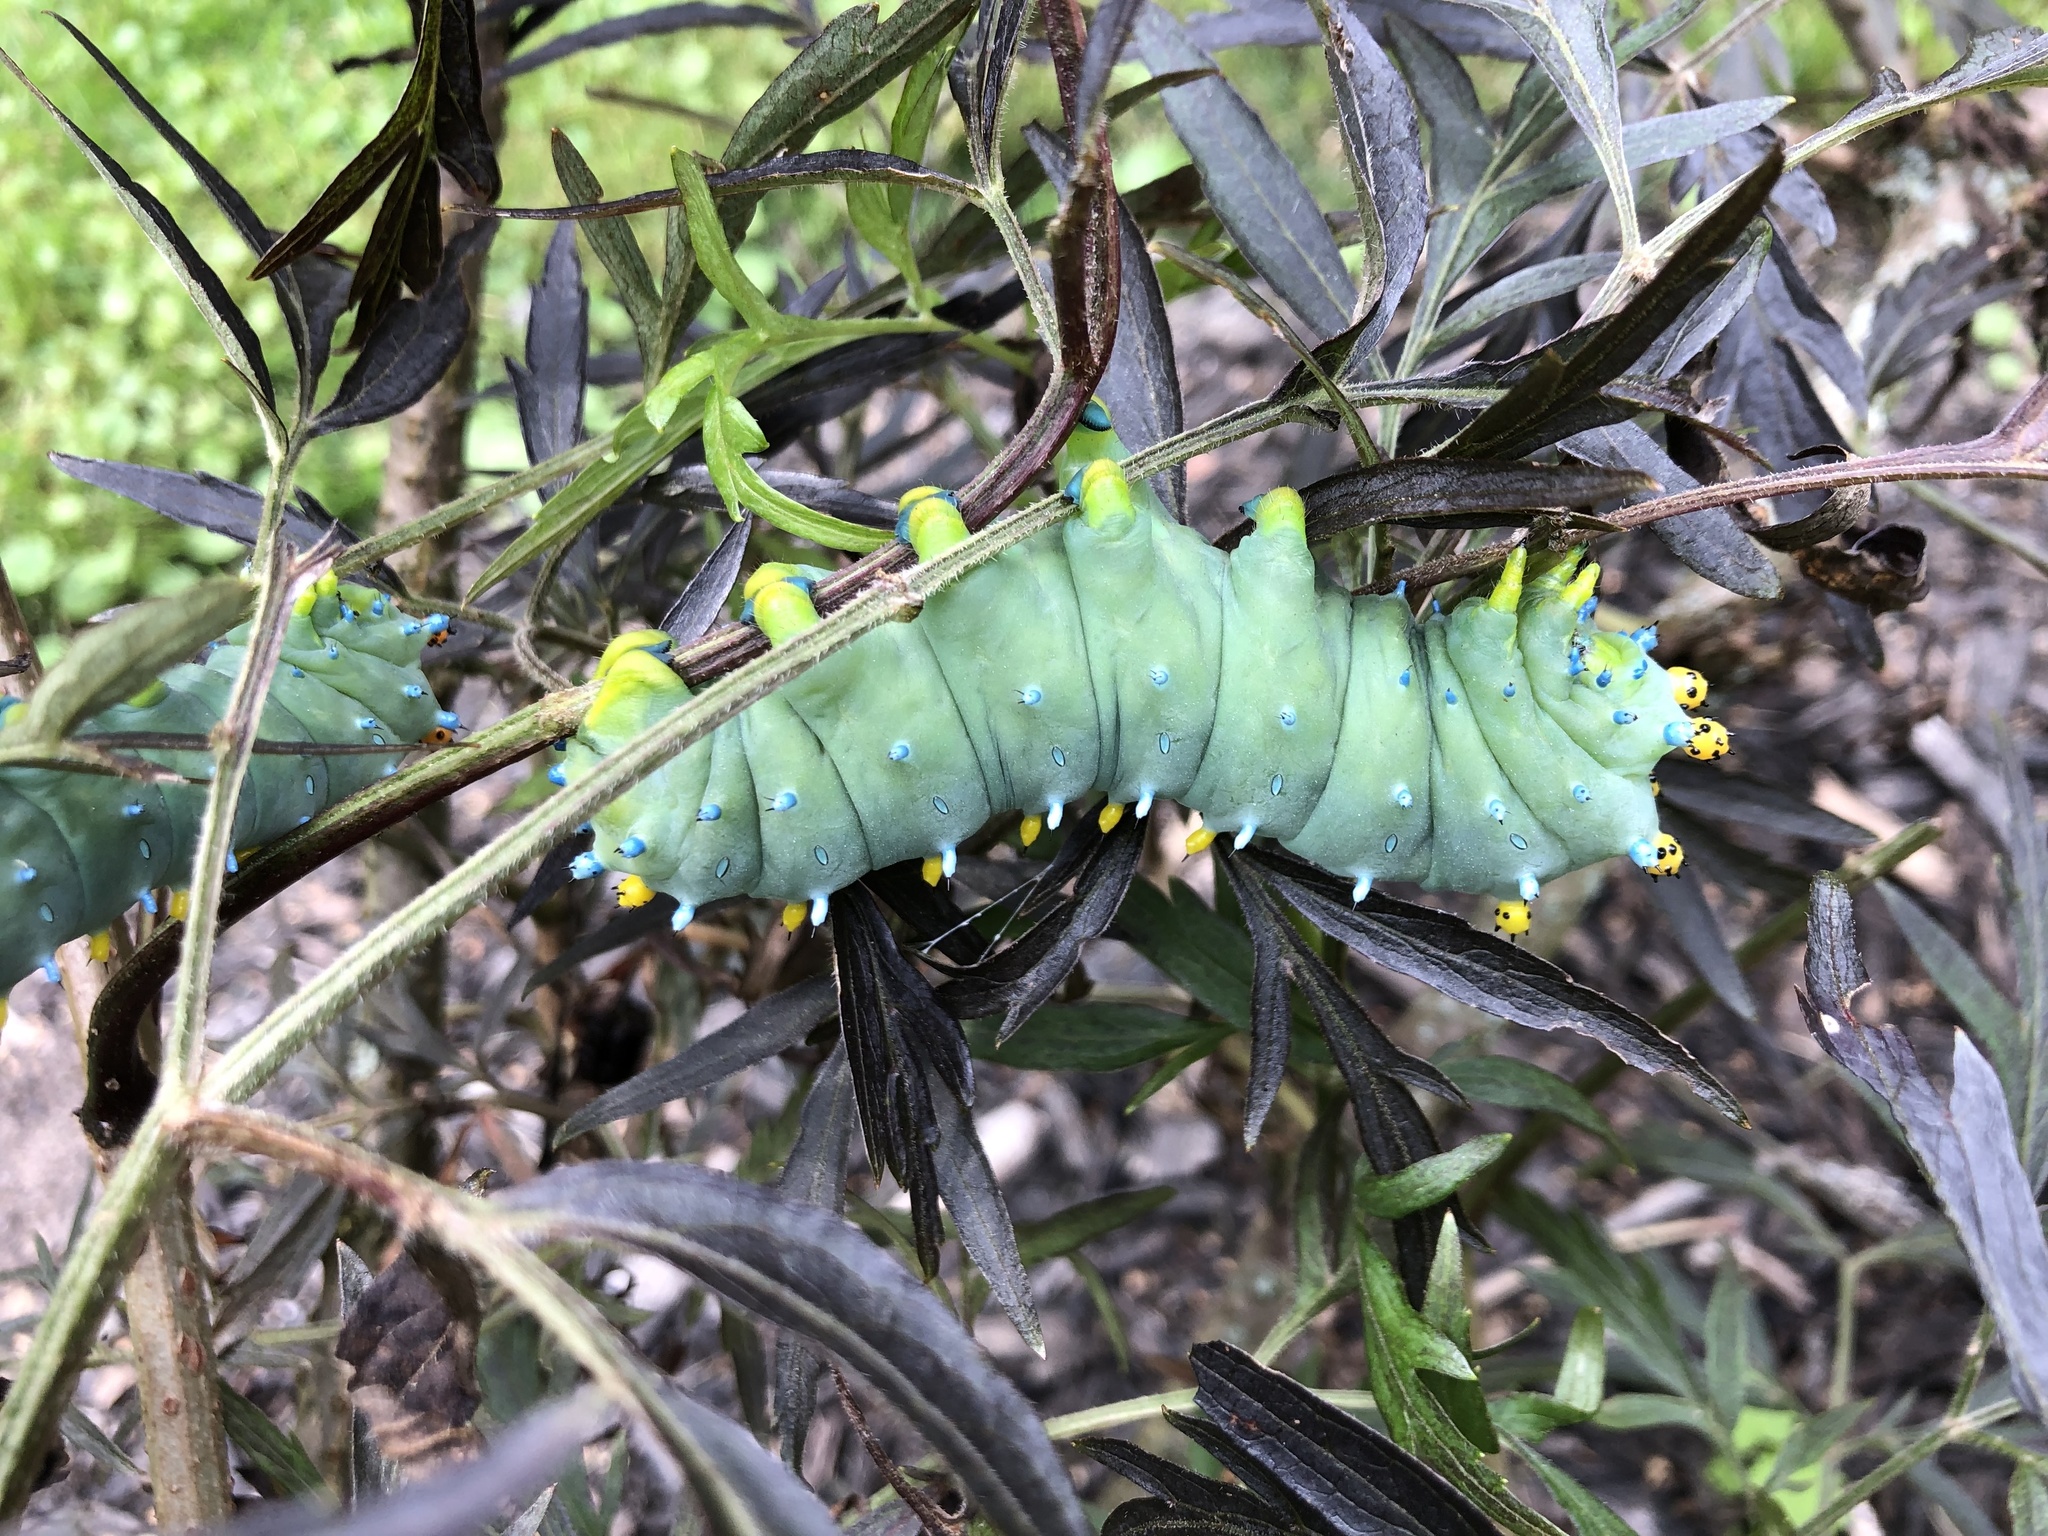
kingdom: Animalia
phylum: Arthropoda
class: Insecta
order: Lepidoptera
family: Saturniidae
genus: Hyalophora
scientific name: Hyalophora cecropia
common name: Cecropia silkmoth
